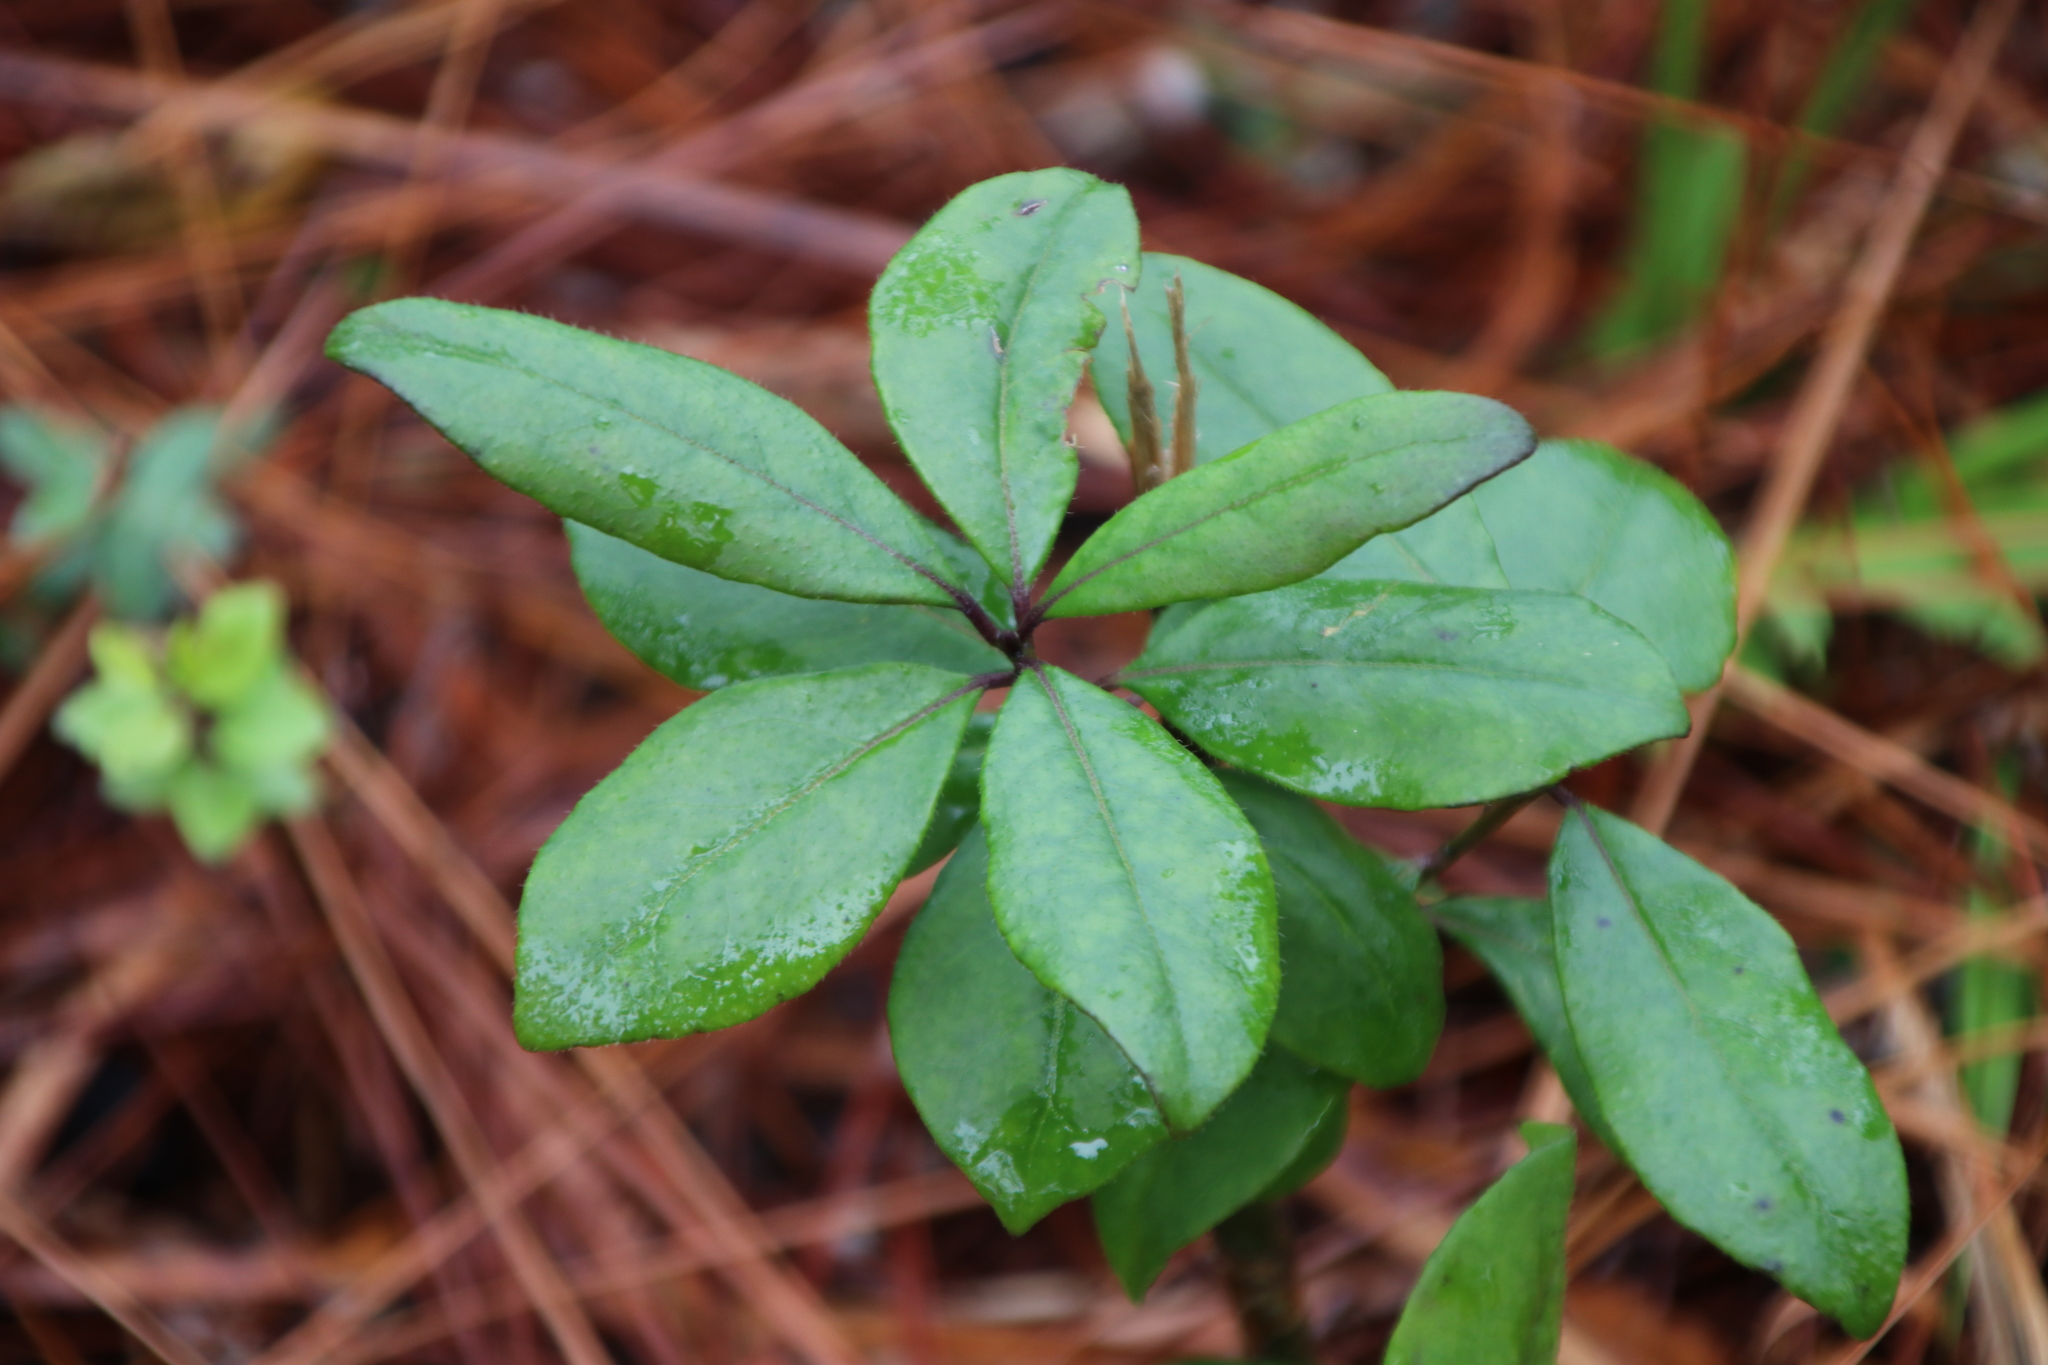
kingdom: Plantae
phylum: Tracheophyta
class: Magnoliopsida
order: Ericales
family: Symplocaceae
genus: Symplocos
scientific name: Symplocos tinctoria
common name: Horse-sugar
